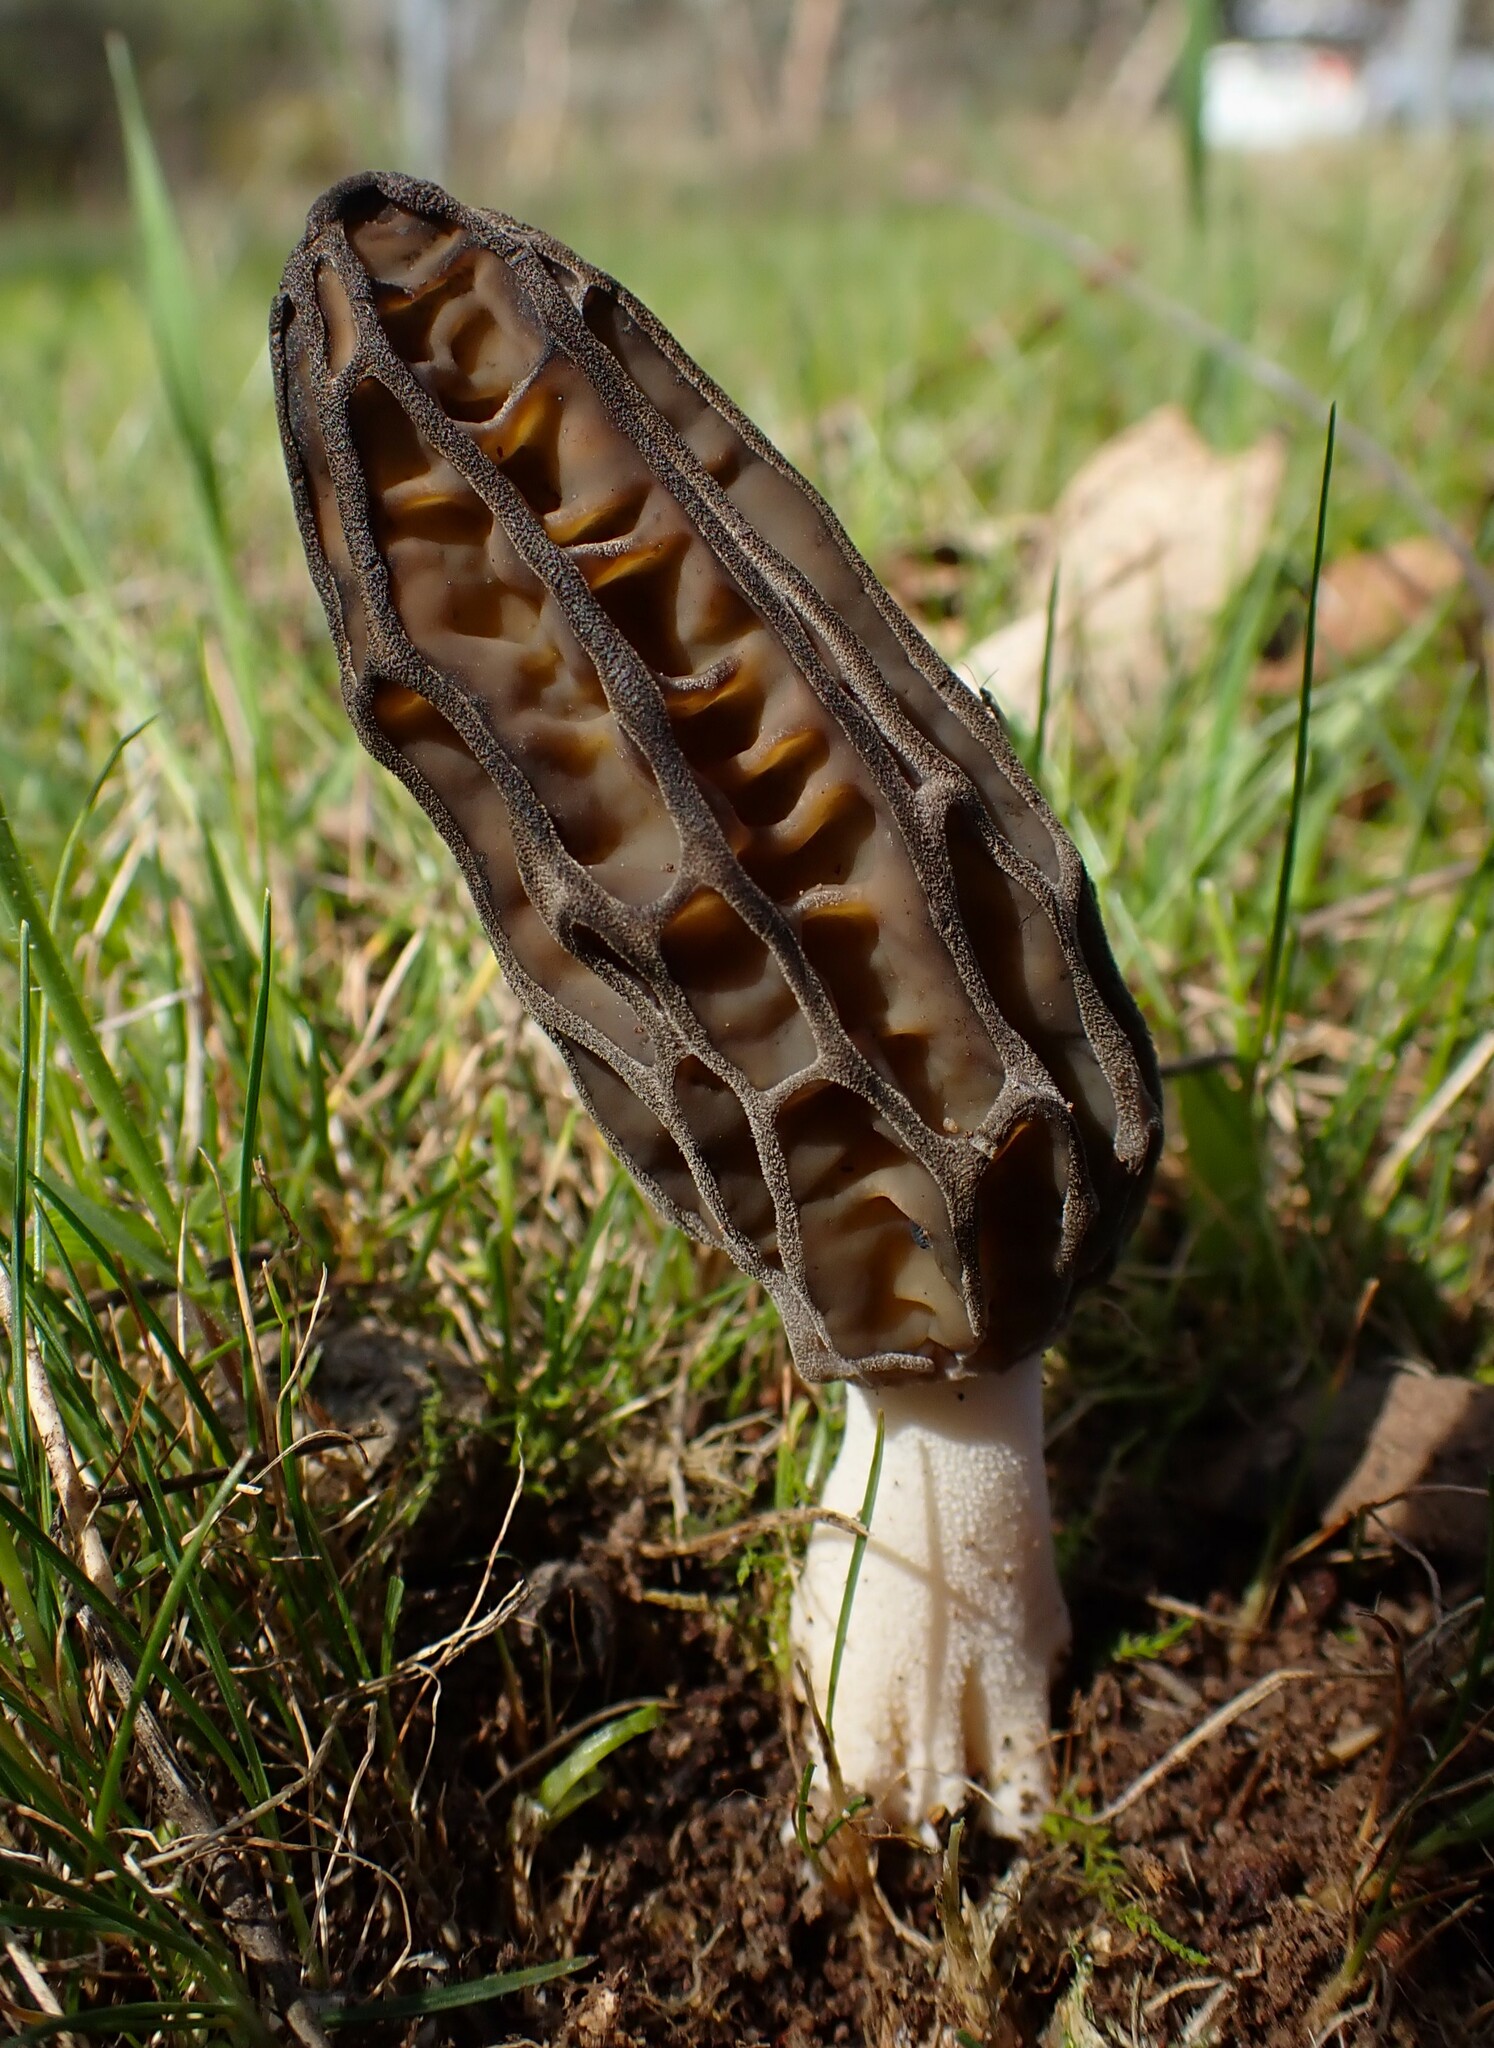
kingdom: Fungi
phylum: Ascomycota
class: Pezizomycetes
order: Pezizales
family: Morchellaceae
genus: Morchella
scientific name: Morchella australiana
